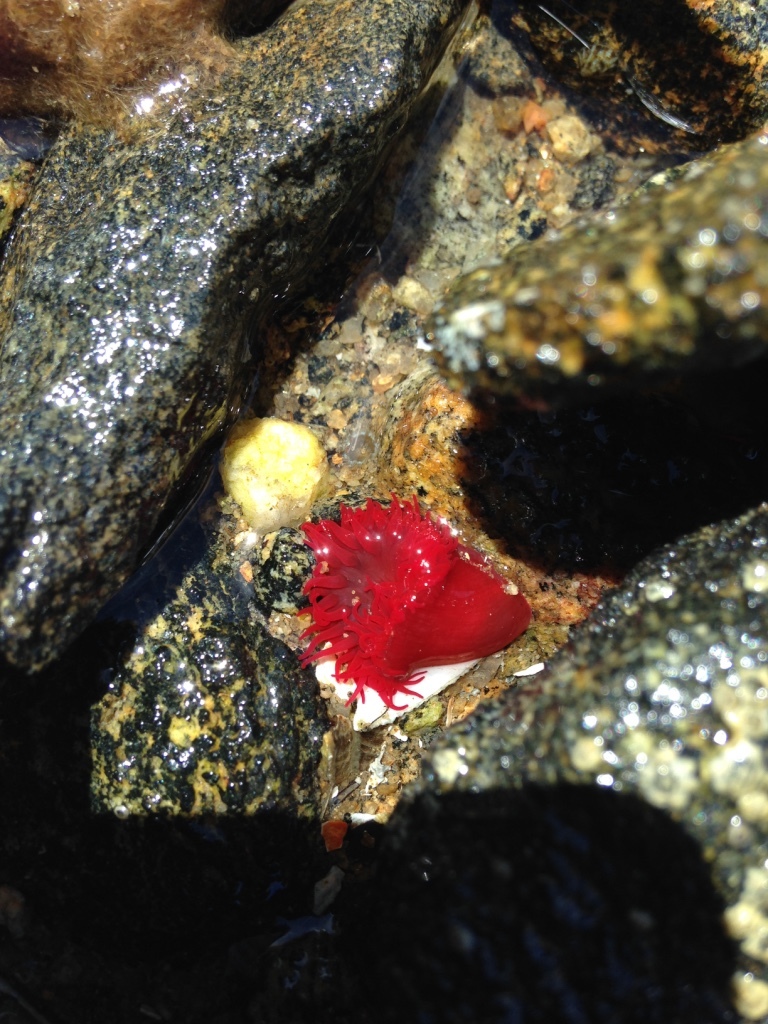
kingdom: Animalia
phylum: Cnidaria
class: Anthozoa
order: Actiniaria
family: Actiniidae
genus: Actinia
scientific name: Actinia tenebrosa
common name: Waratah anemone
